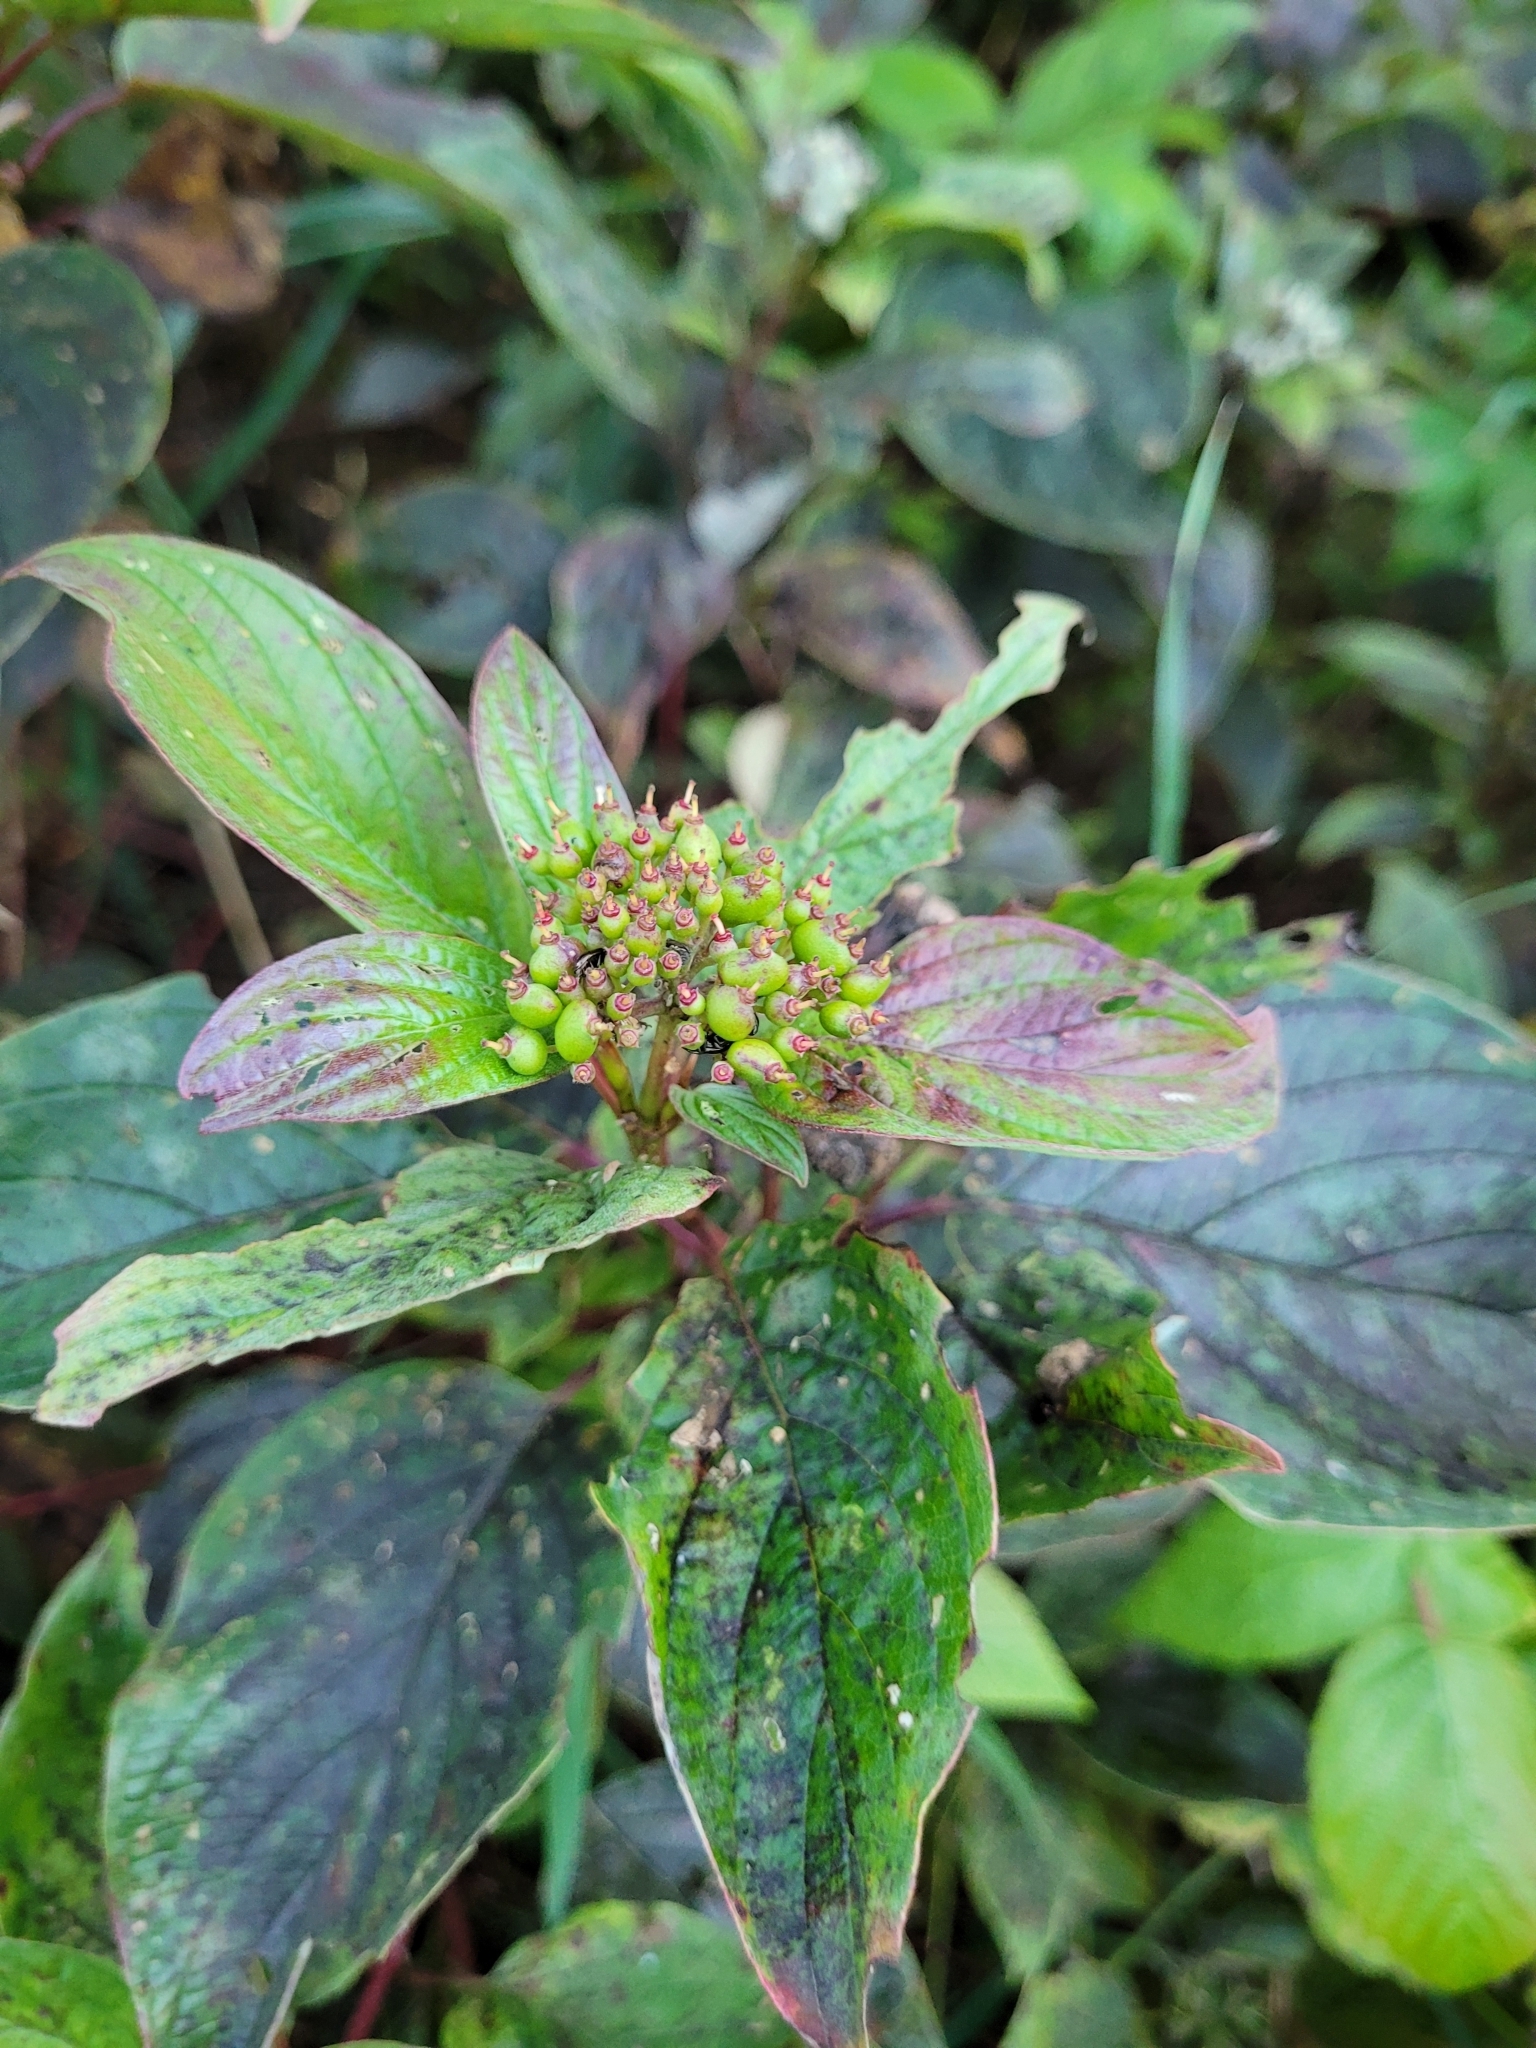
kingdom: Plantae
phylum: Tracheophyta
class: Magnoliopsida
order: Cornales
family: Cornaceae
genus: Cornus
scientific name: Cornus sericea
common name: Red-osier dogwood
